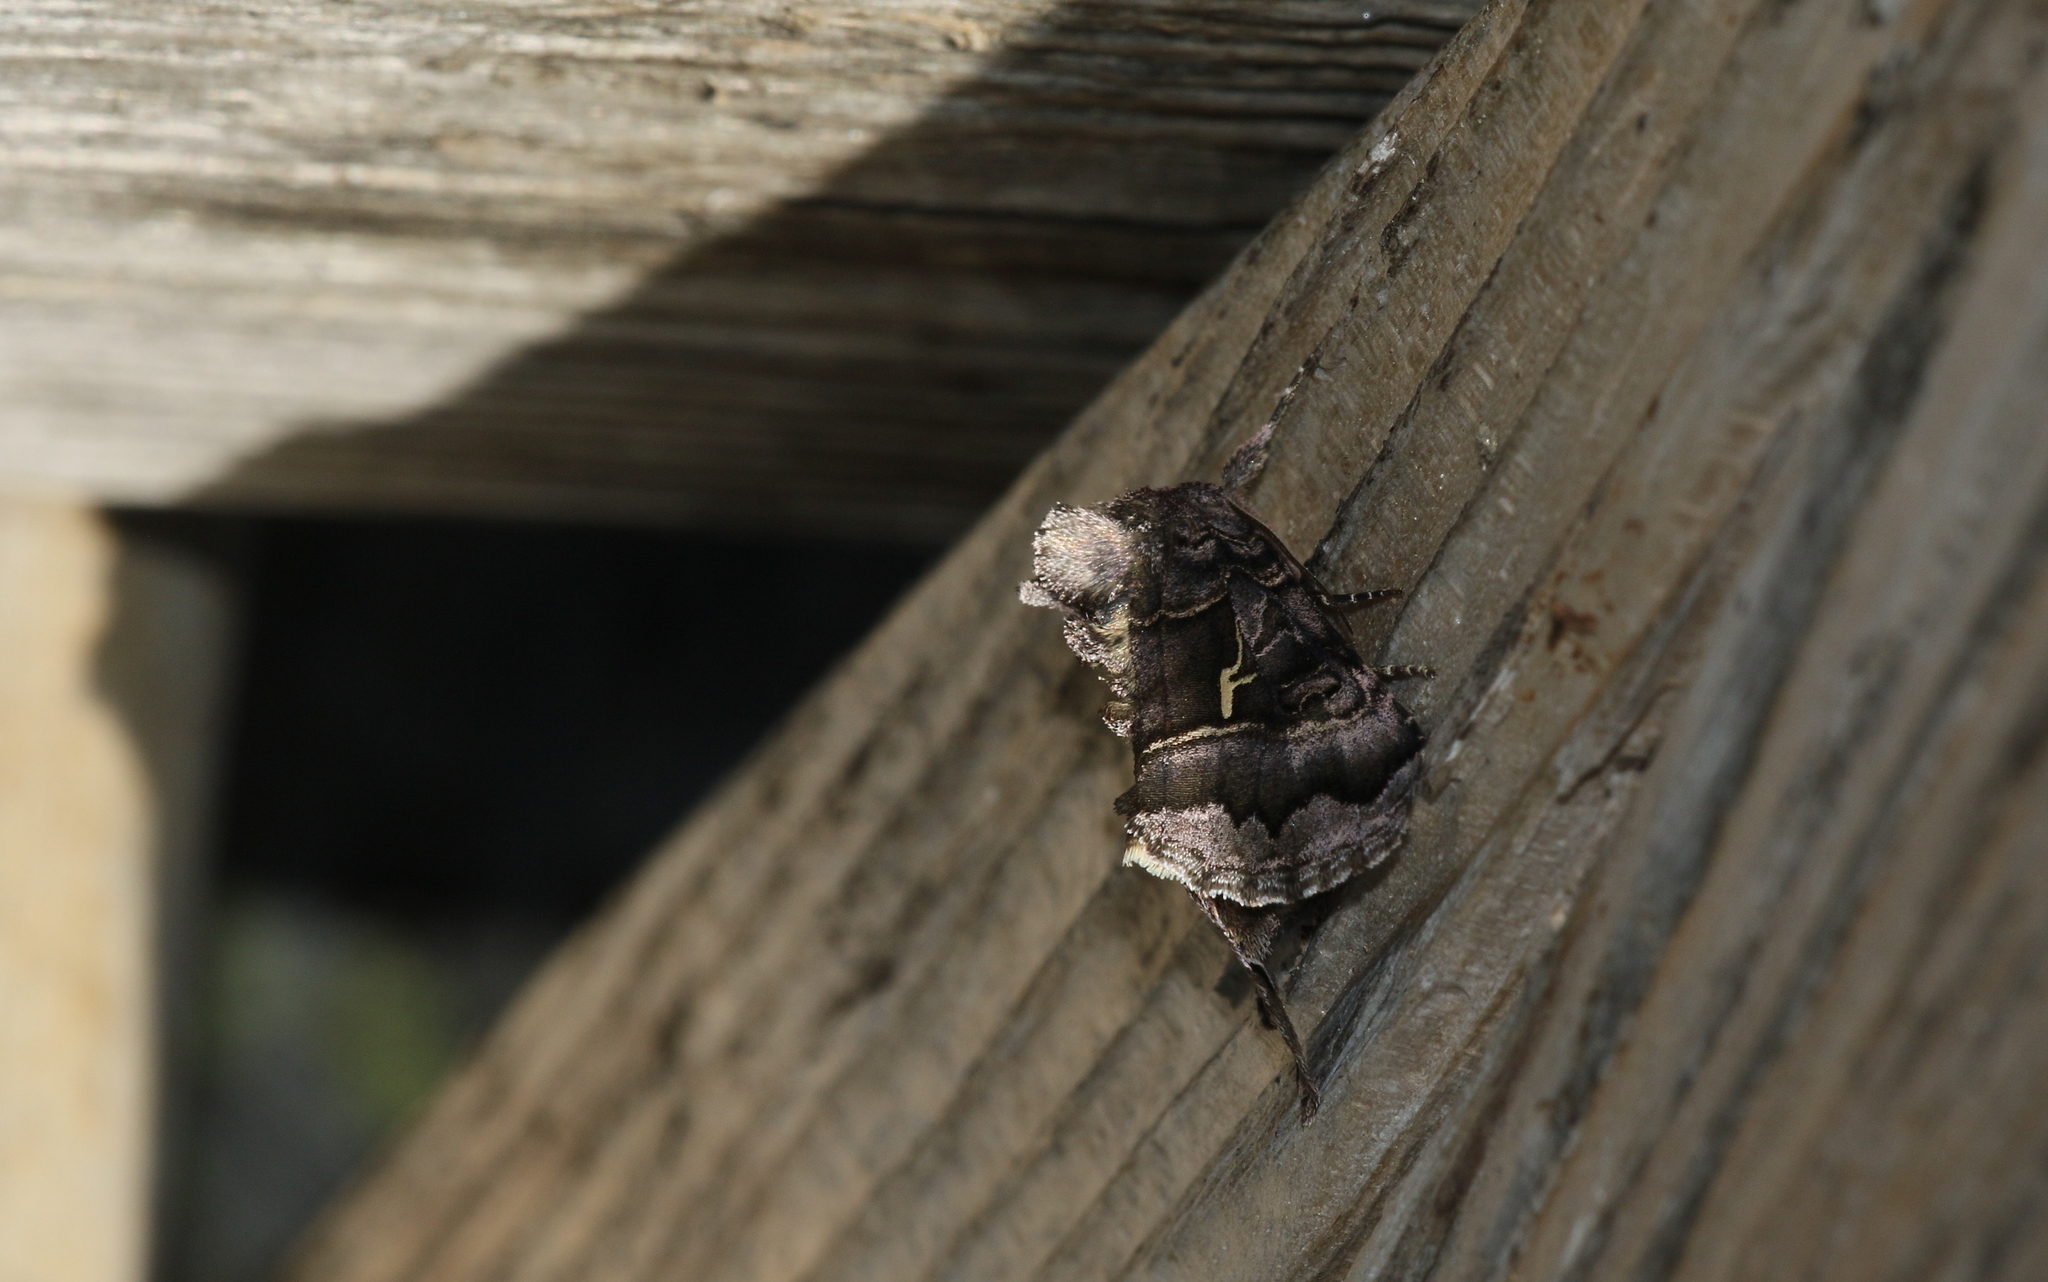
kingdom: Animalia
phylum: Arthropoda
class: Insecta
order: Lepidoptera
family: Noctuidae
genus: Syngrapha
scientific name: Syngrapha ain
